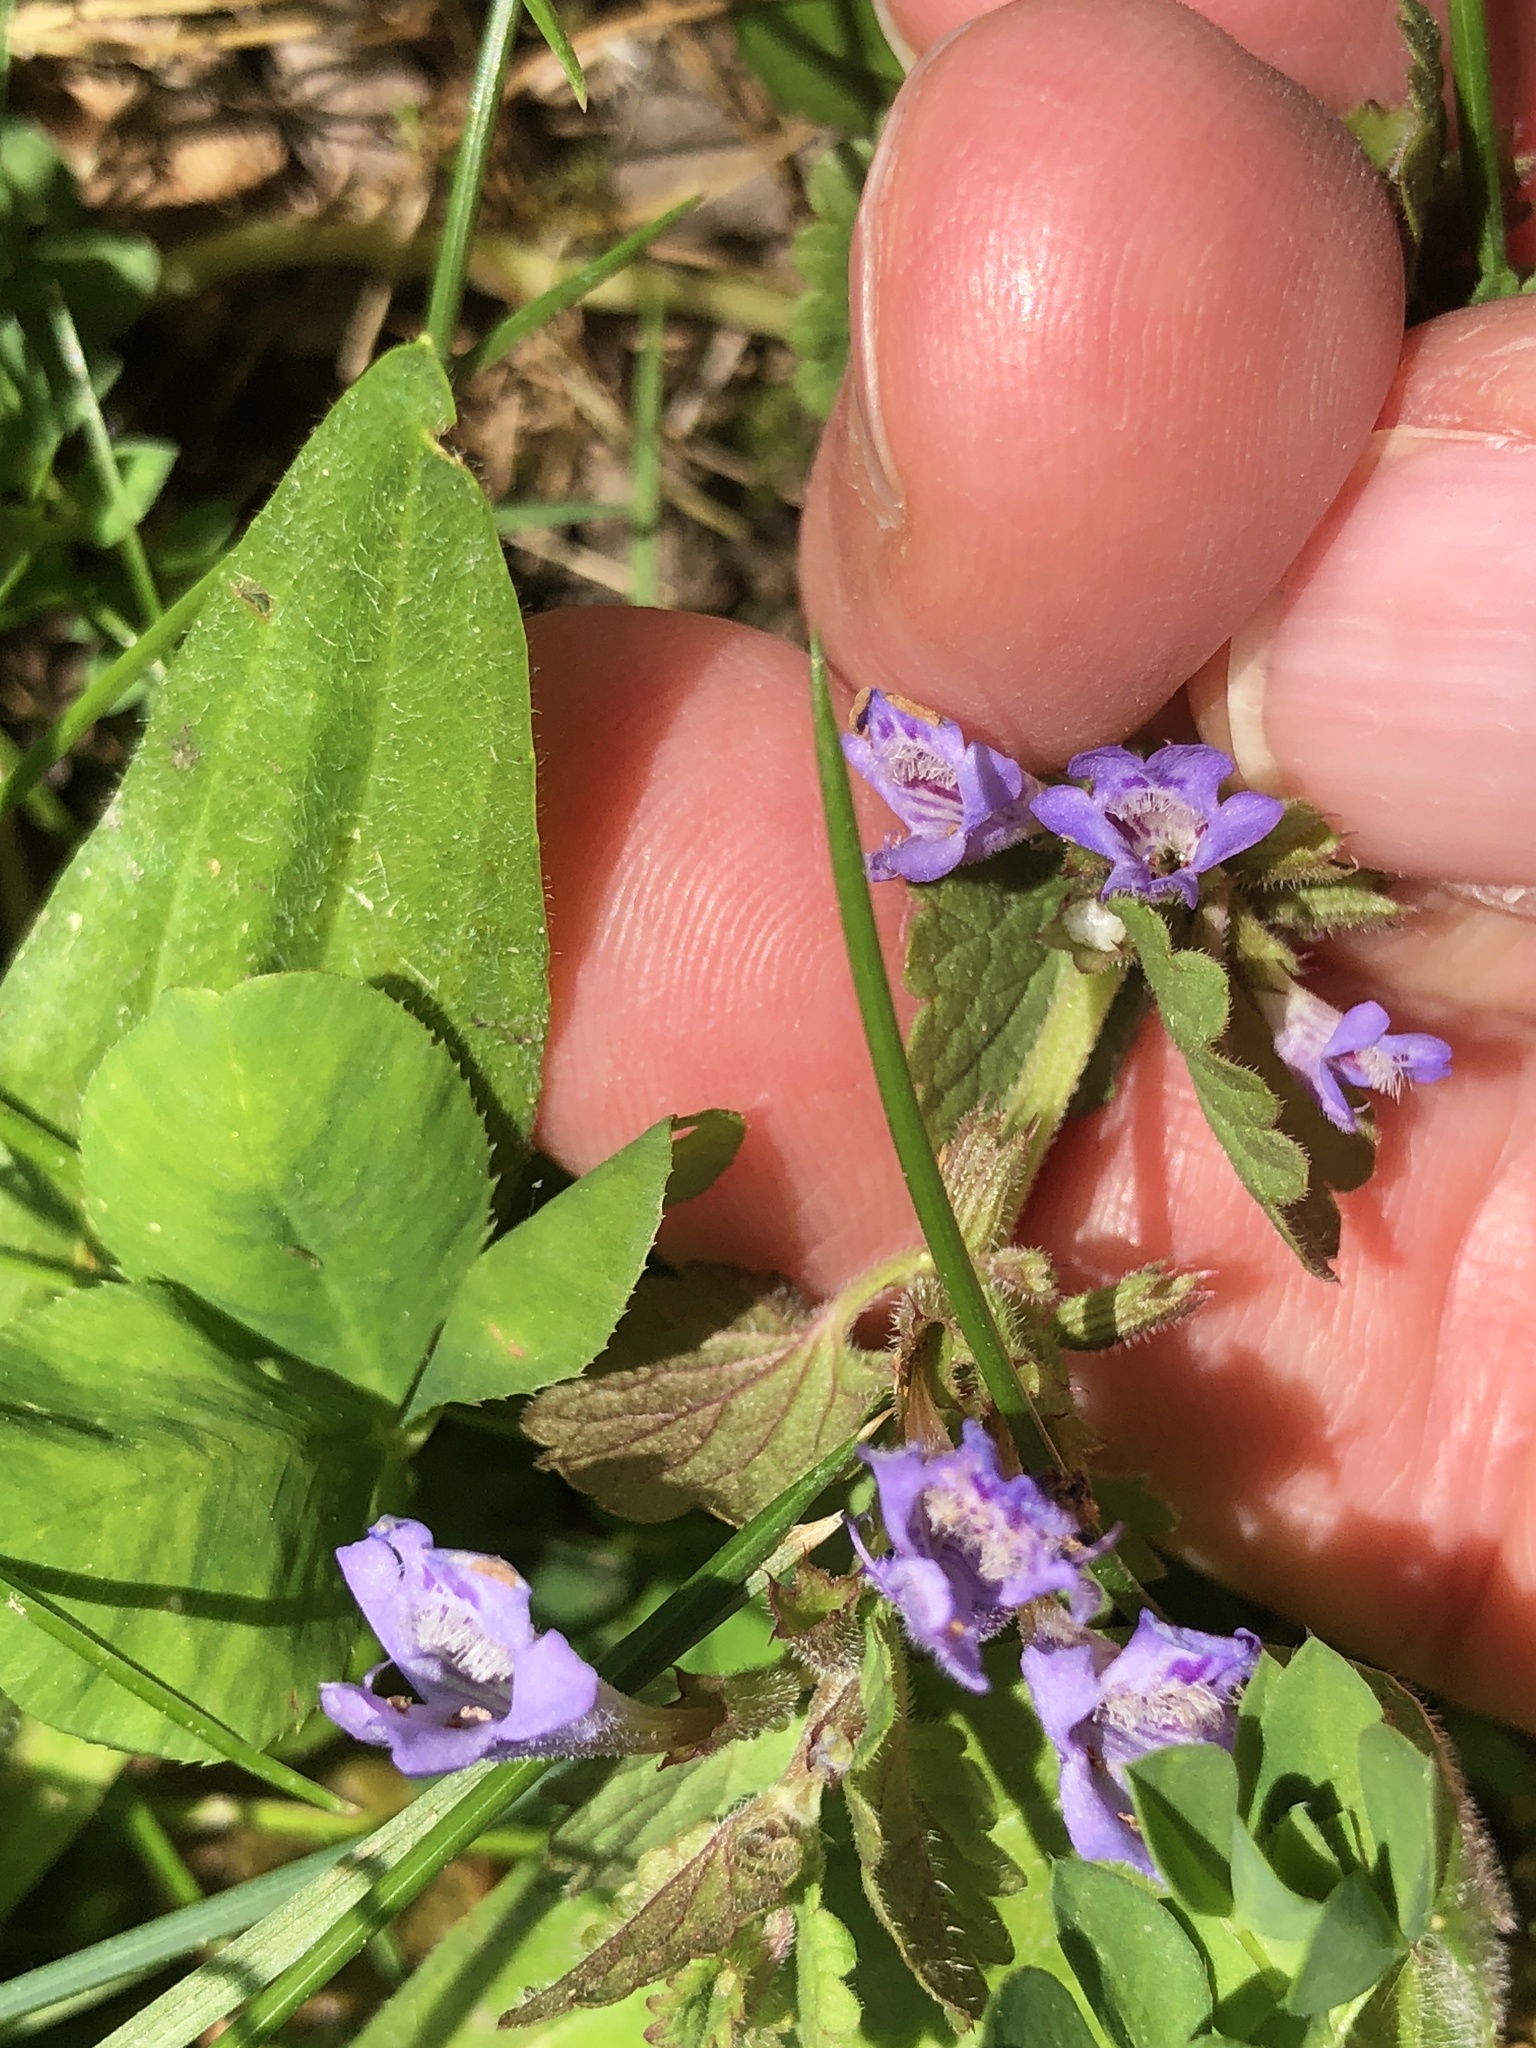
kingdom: Plantae
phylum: Tracheophyta
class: Magnoliopsida
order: Lamiales
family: Lamiaceae
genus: Glechoma
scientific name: Glechoma hederacea
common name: Ground ivy
